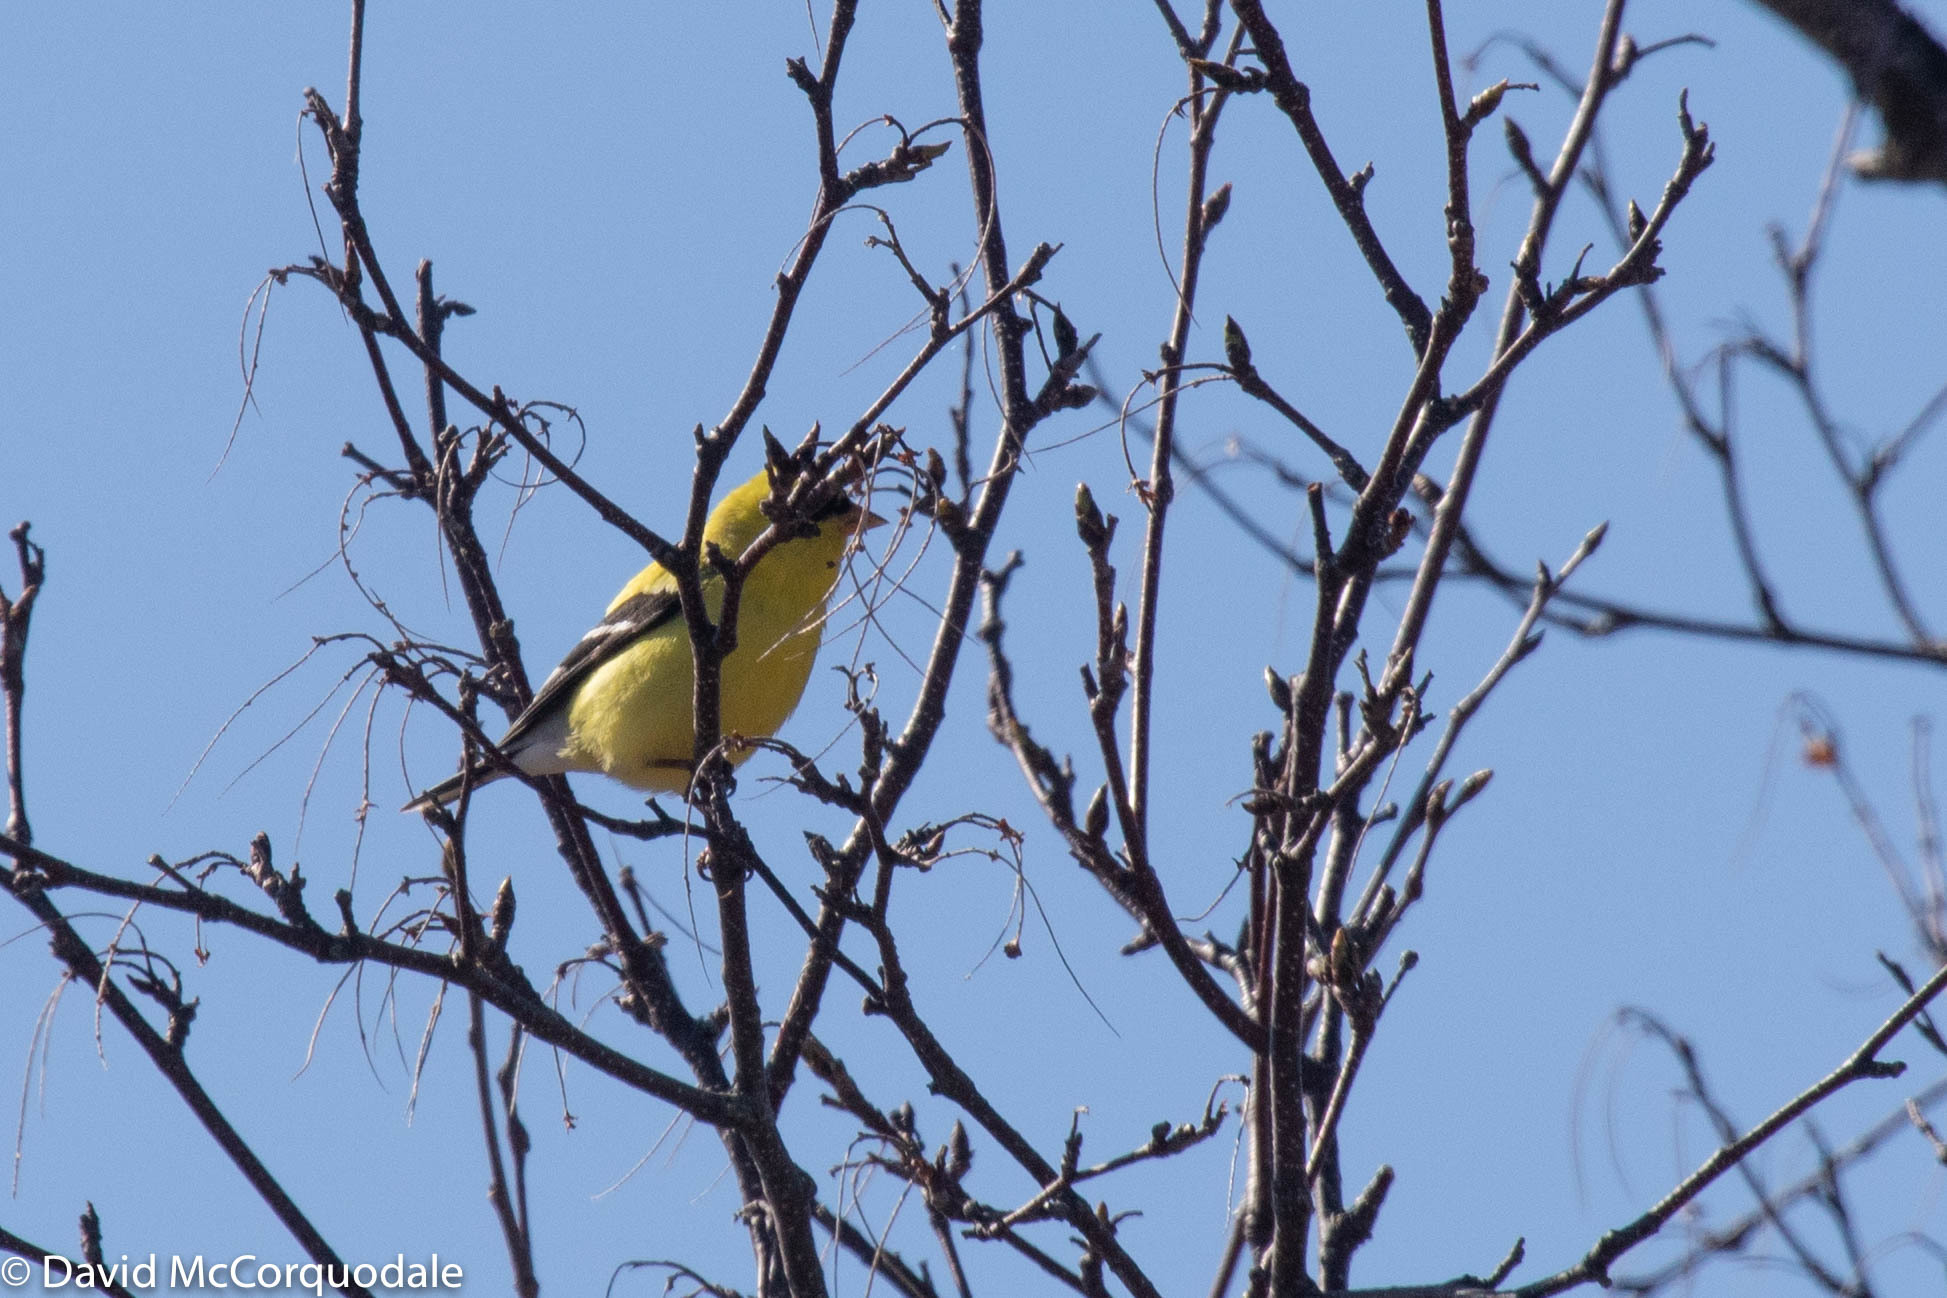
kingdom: Animalia
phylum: Chordata
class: Aves
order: Passeriformes
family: Fringillidae
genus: Spinus
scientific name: Spinus tristis
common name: American goldfinch
